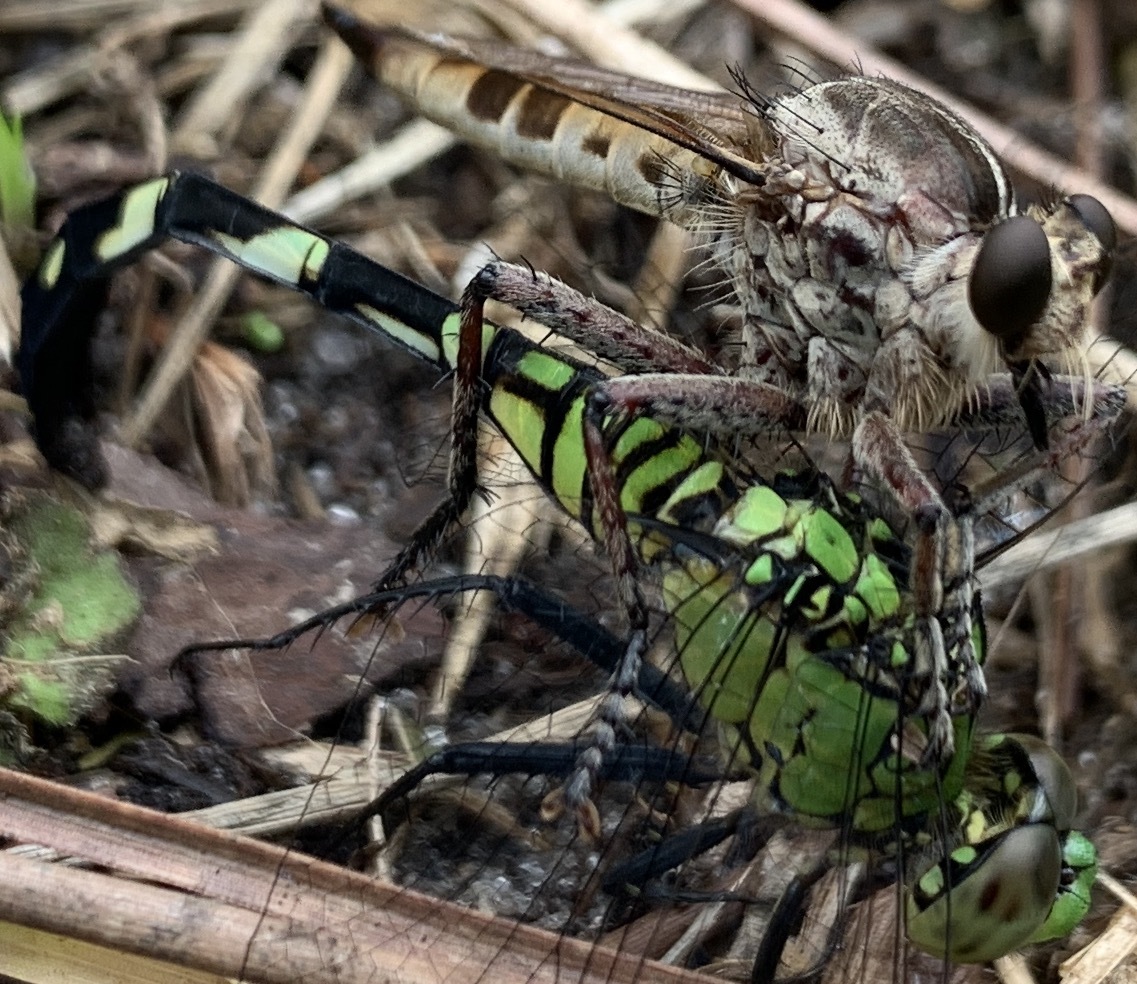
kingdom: Animalia
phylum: Arthropoda
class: Insecta
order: Odonata
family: Libellulidae
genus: Erythemis
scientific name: Erythemis simplicicollis
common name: Eastern pondhawk
